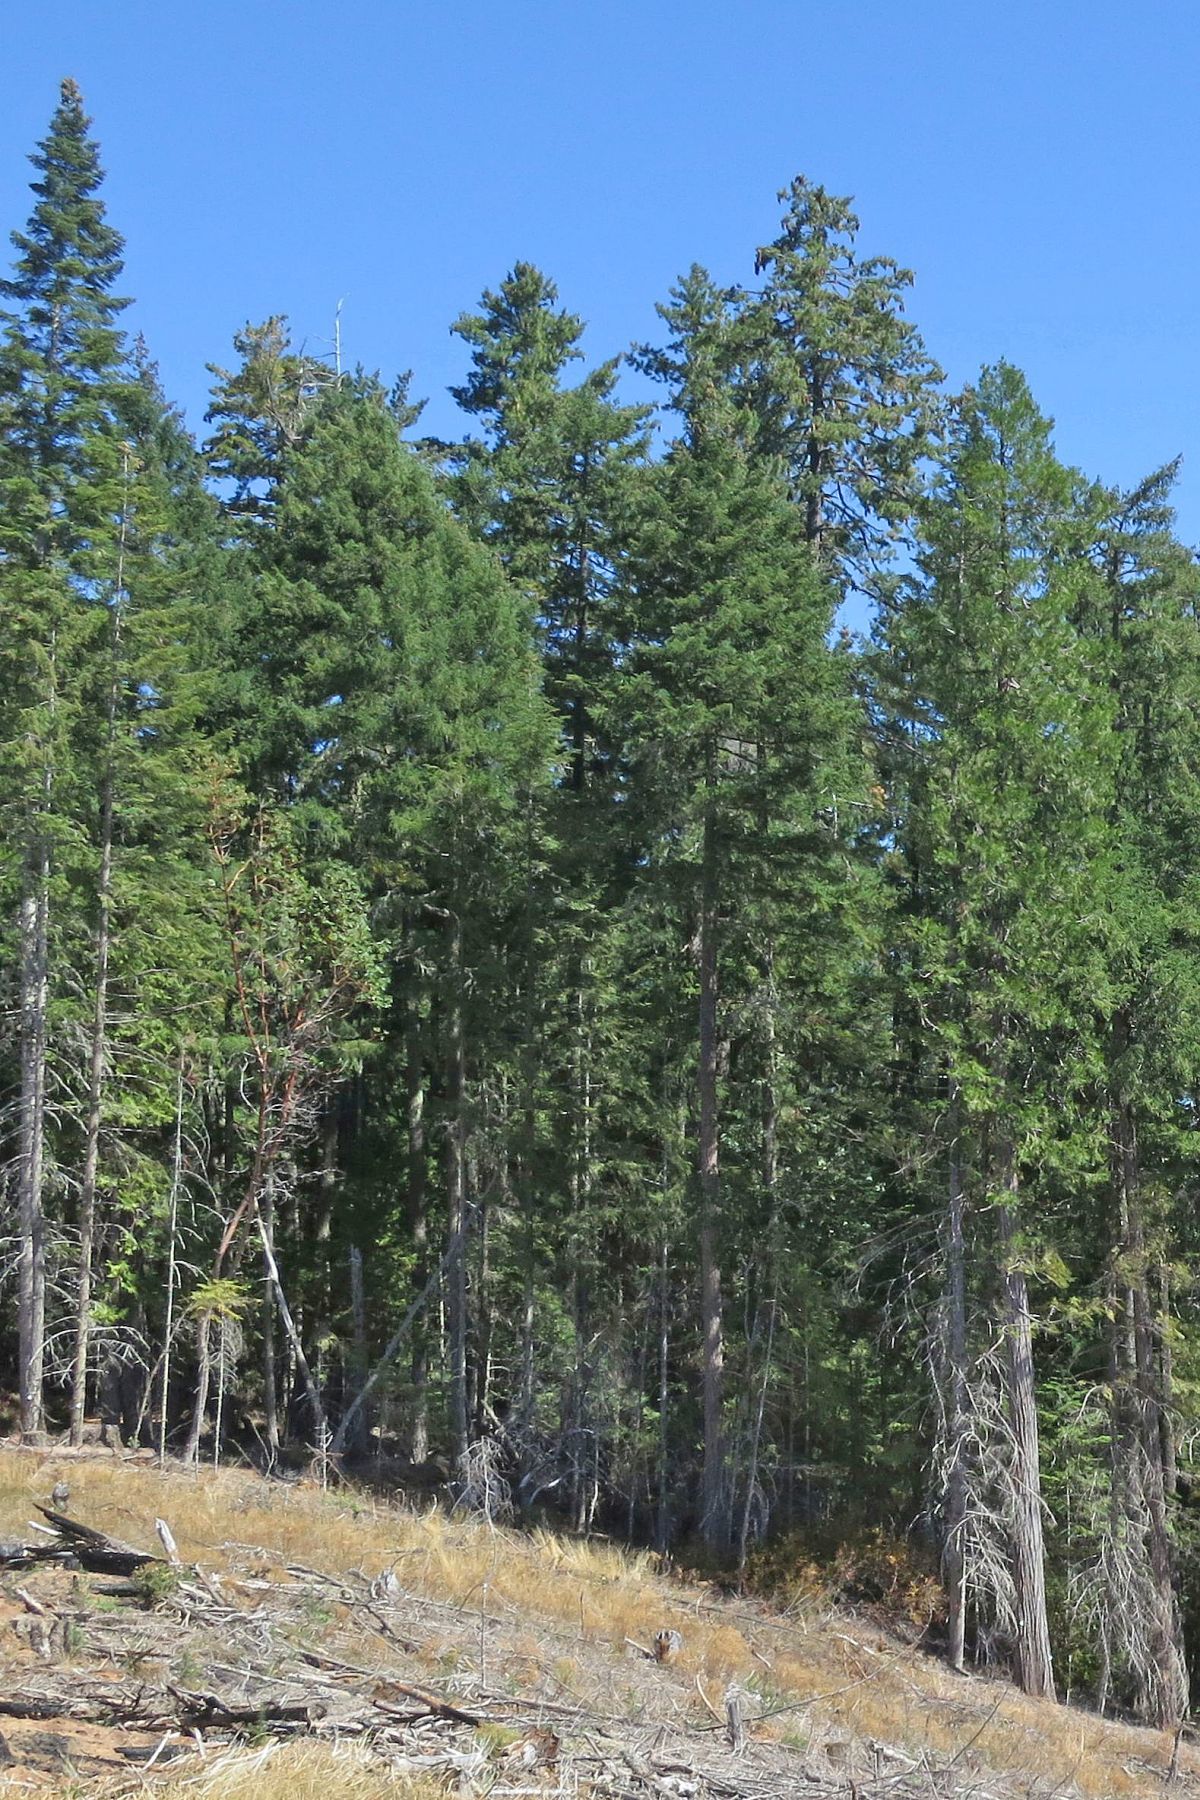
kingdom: Plantae
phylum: Tracheophyta
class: Pinopsida
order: Pinales
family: Pinaceae
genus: Pinus
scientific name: Pinus lambertiana
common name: Sugar pine
